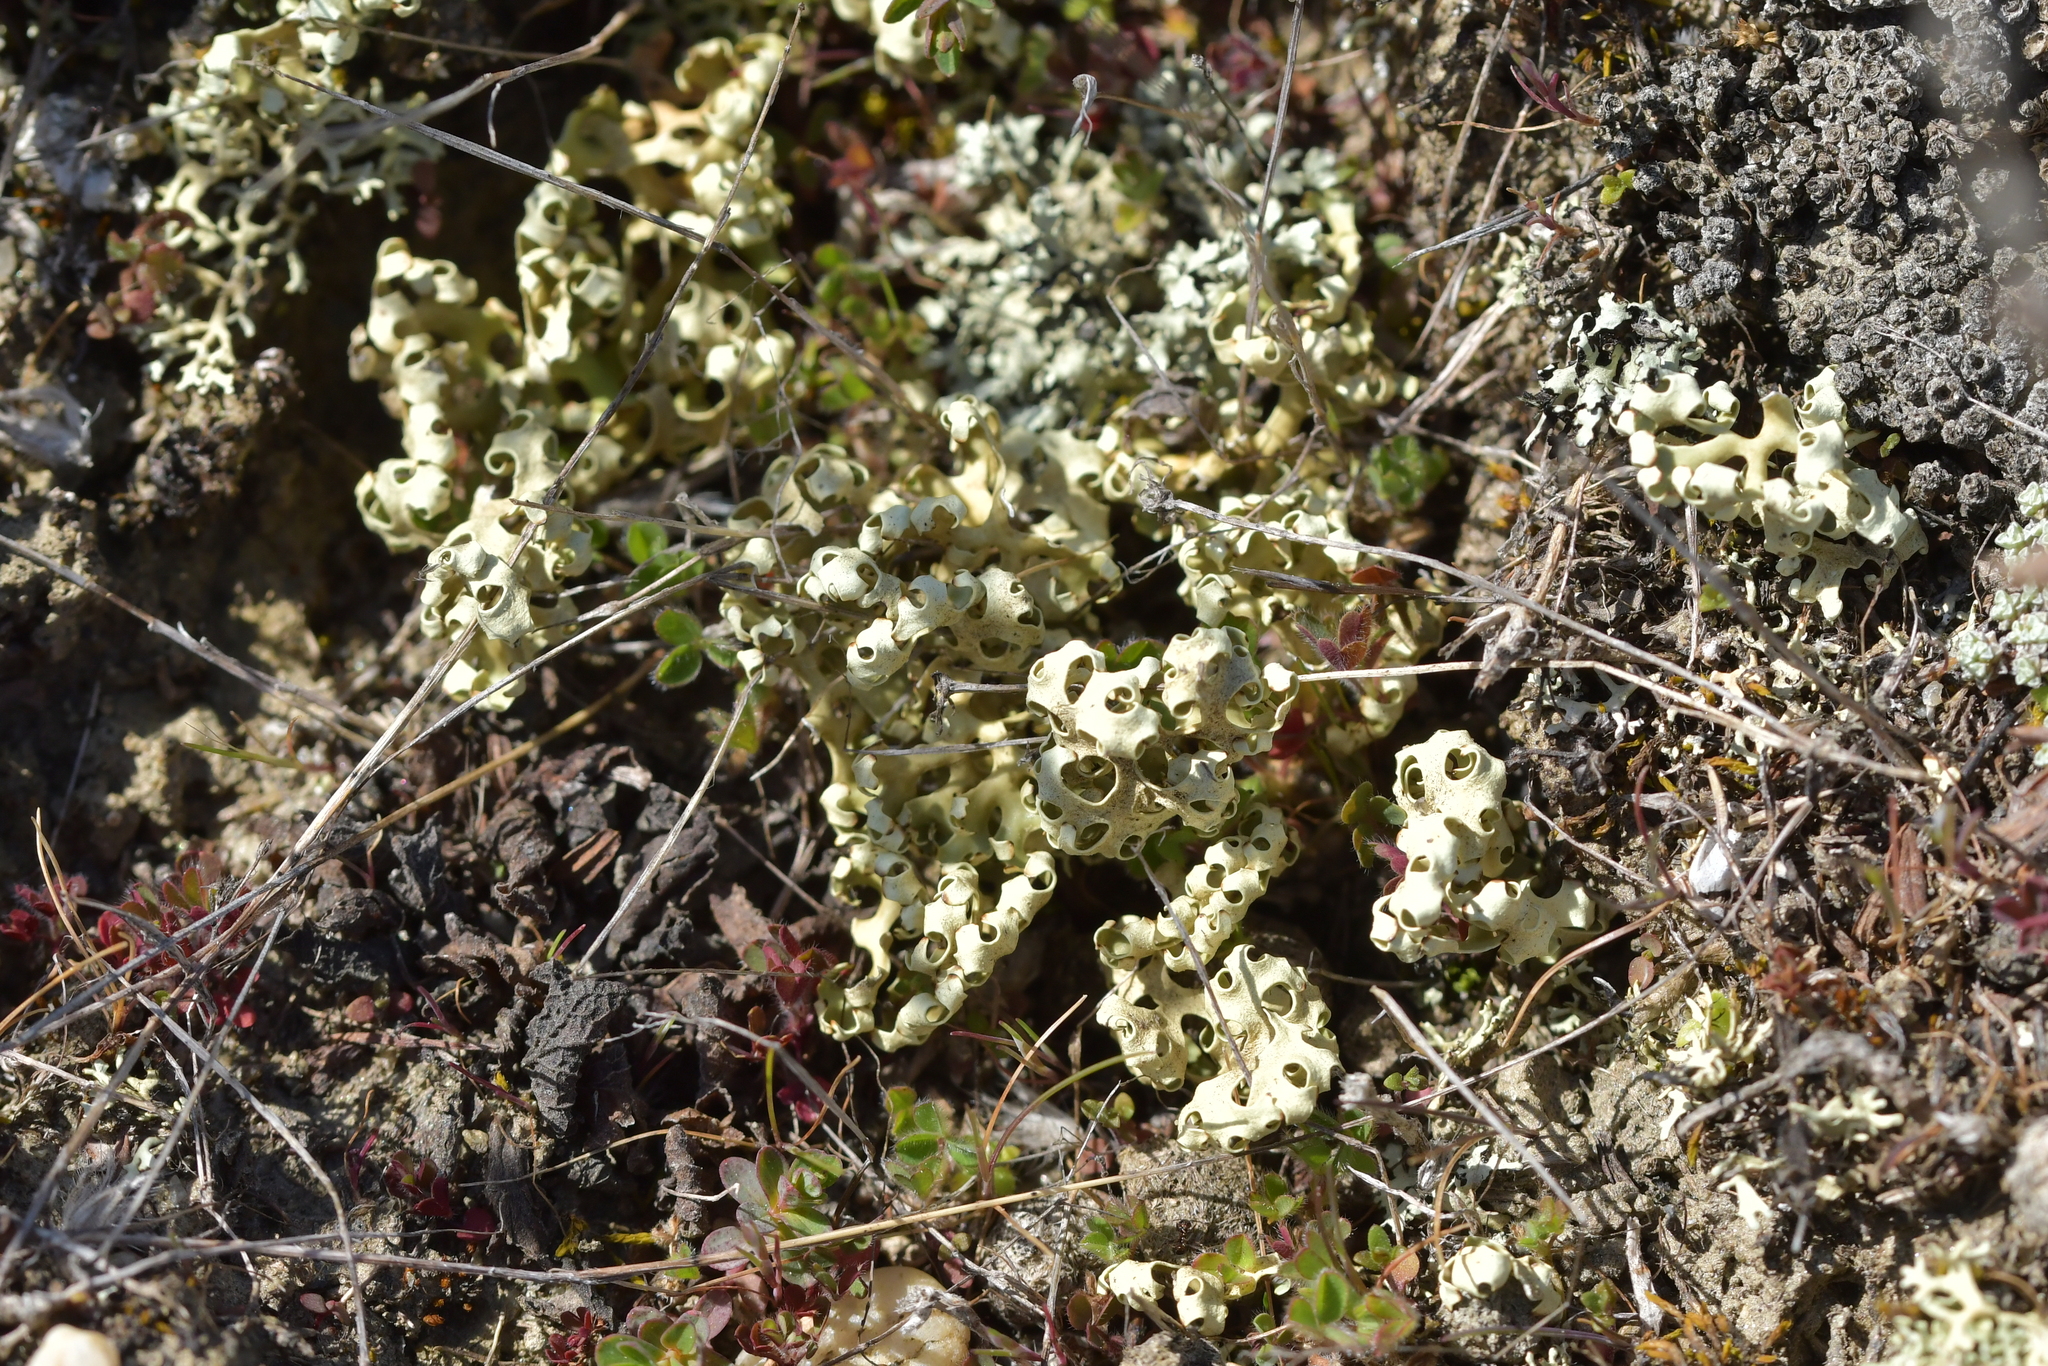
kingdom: Fungi
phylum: Ascomycota
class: Lecanoromycetes
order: Lecanorales
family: Parmeliaceae
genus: Xanthoparmelia
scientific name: Xanthoparmelia semiviridis
